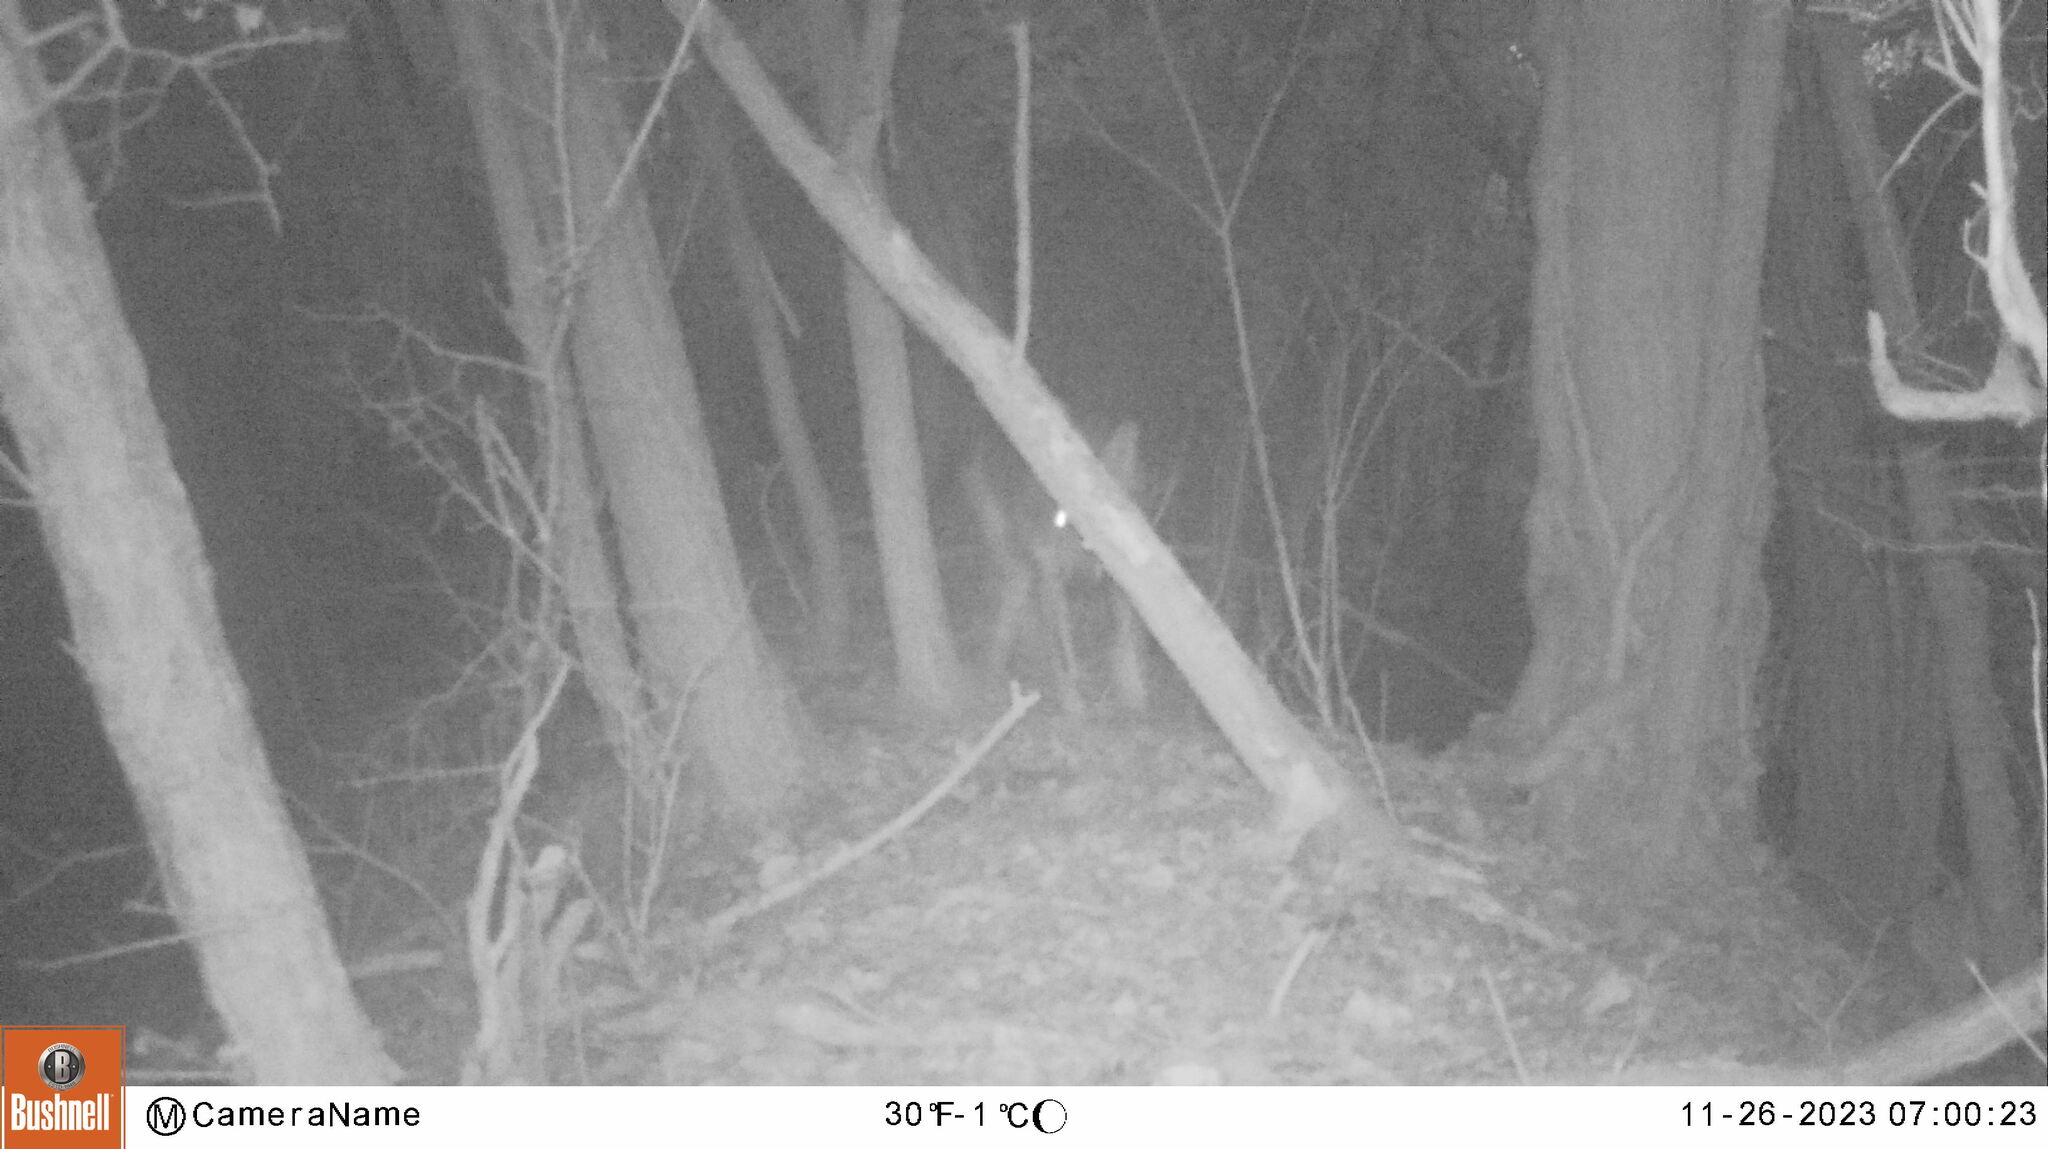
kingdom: Animalia
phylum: Chordata
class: Mammalia
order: Carnivora
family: Canidae
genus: Canis
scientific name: Canis lupus
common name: Gray wolf
